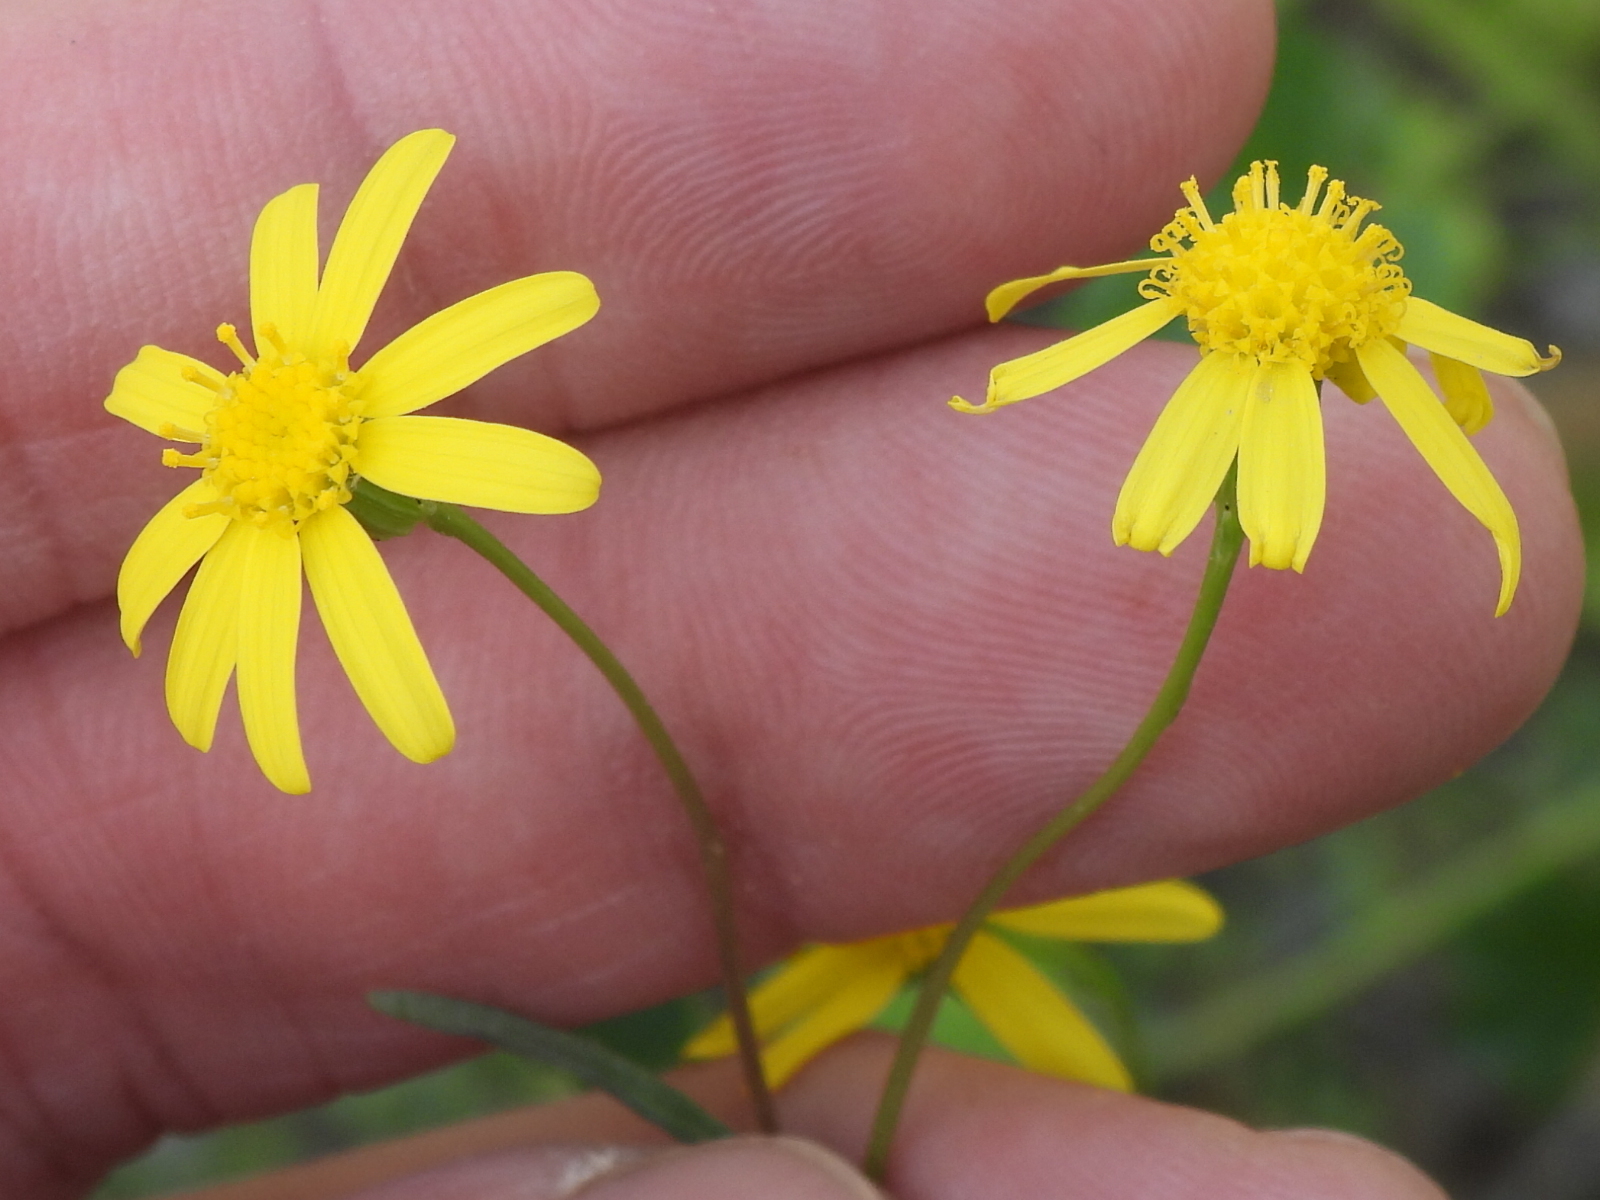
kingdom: Plantae
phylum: Tracheophyta
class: Magnoliopsida
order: Asterales
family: Asteraceae
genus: Senecio
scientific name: Senecio glaucus
